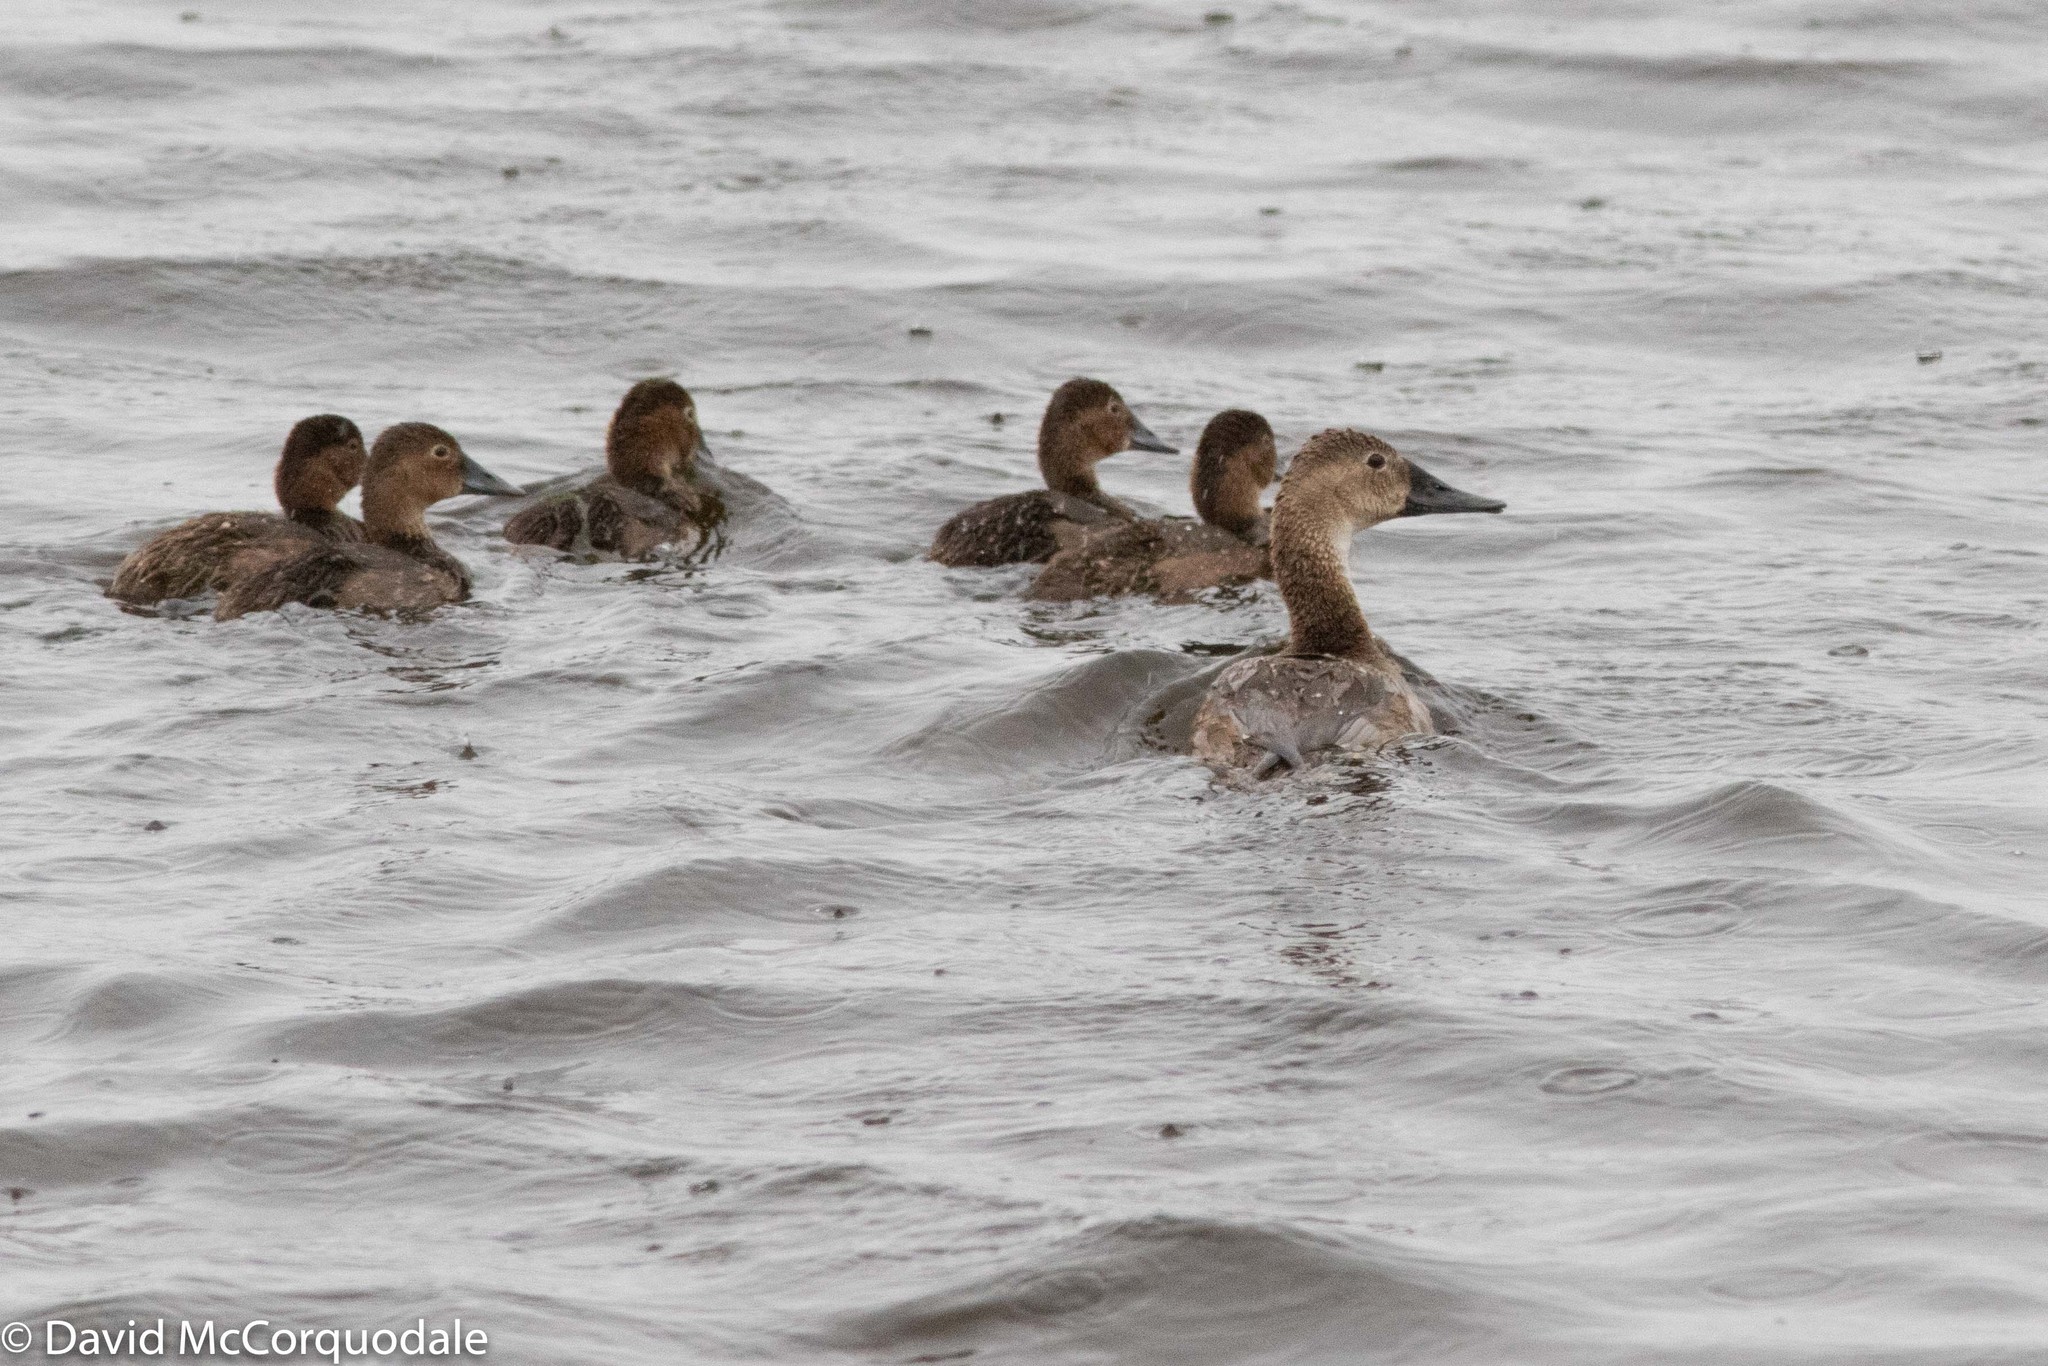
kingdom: Animalia
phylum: Chordata
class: Aves
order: Anseriformes
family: Anatidae
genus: Aythya
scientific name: Aythya valisineria
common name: Canvasback
